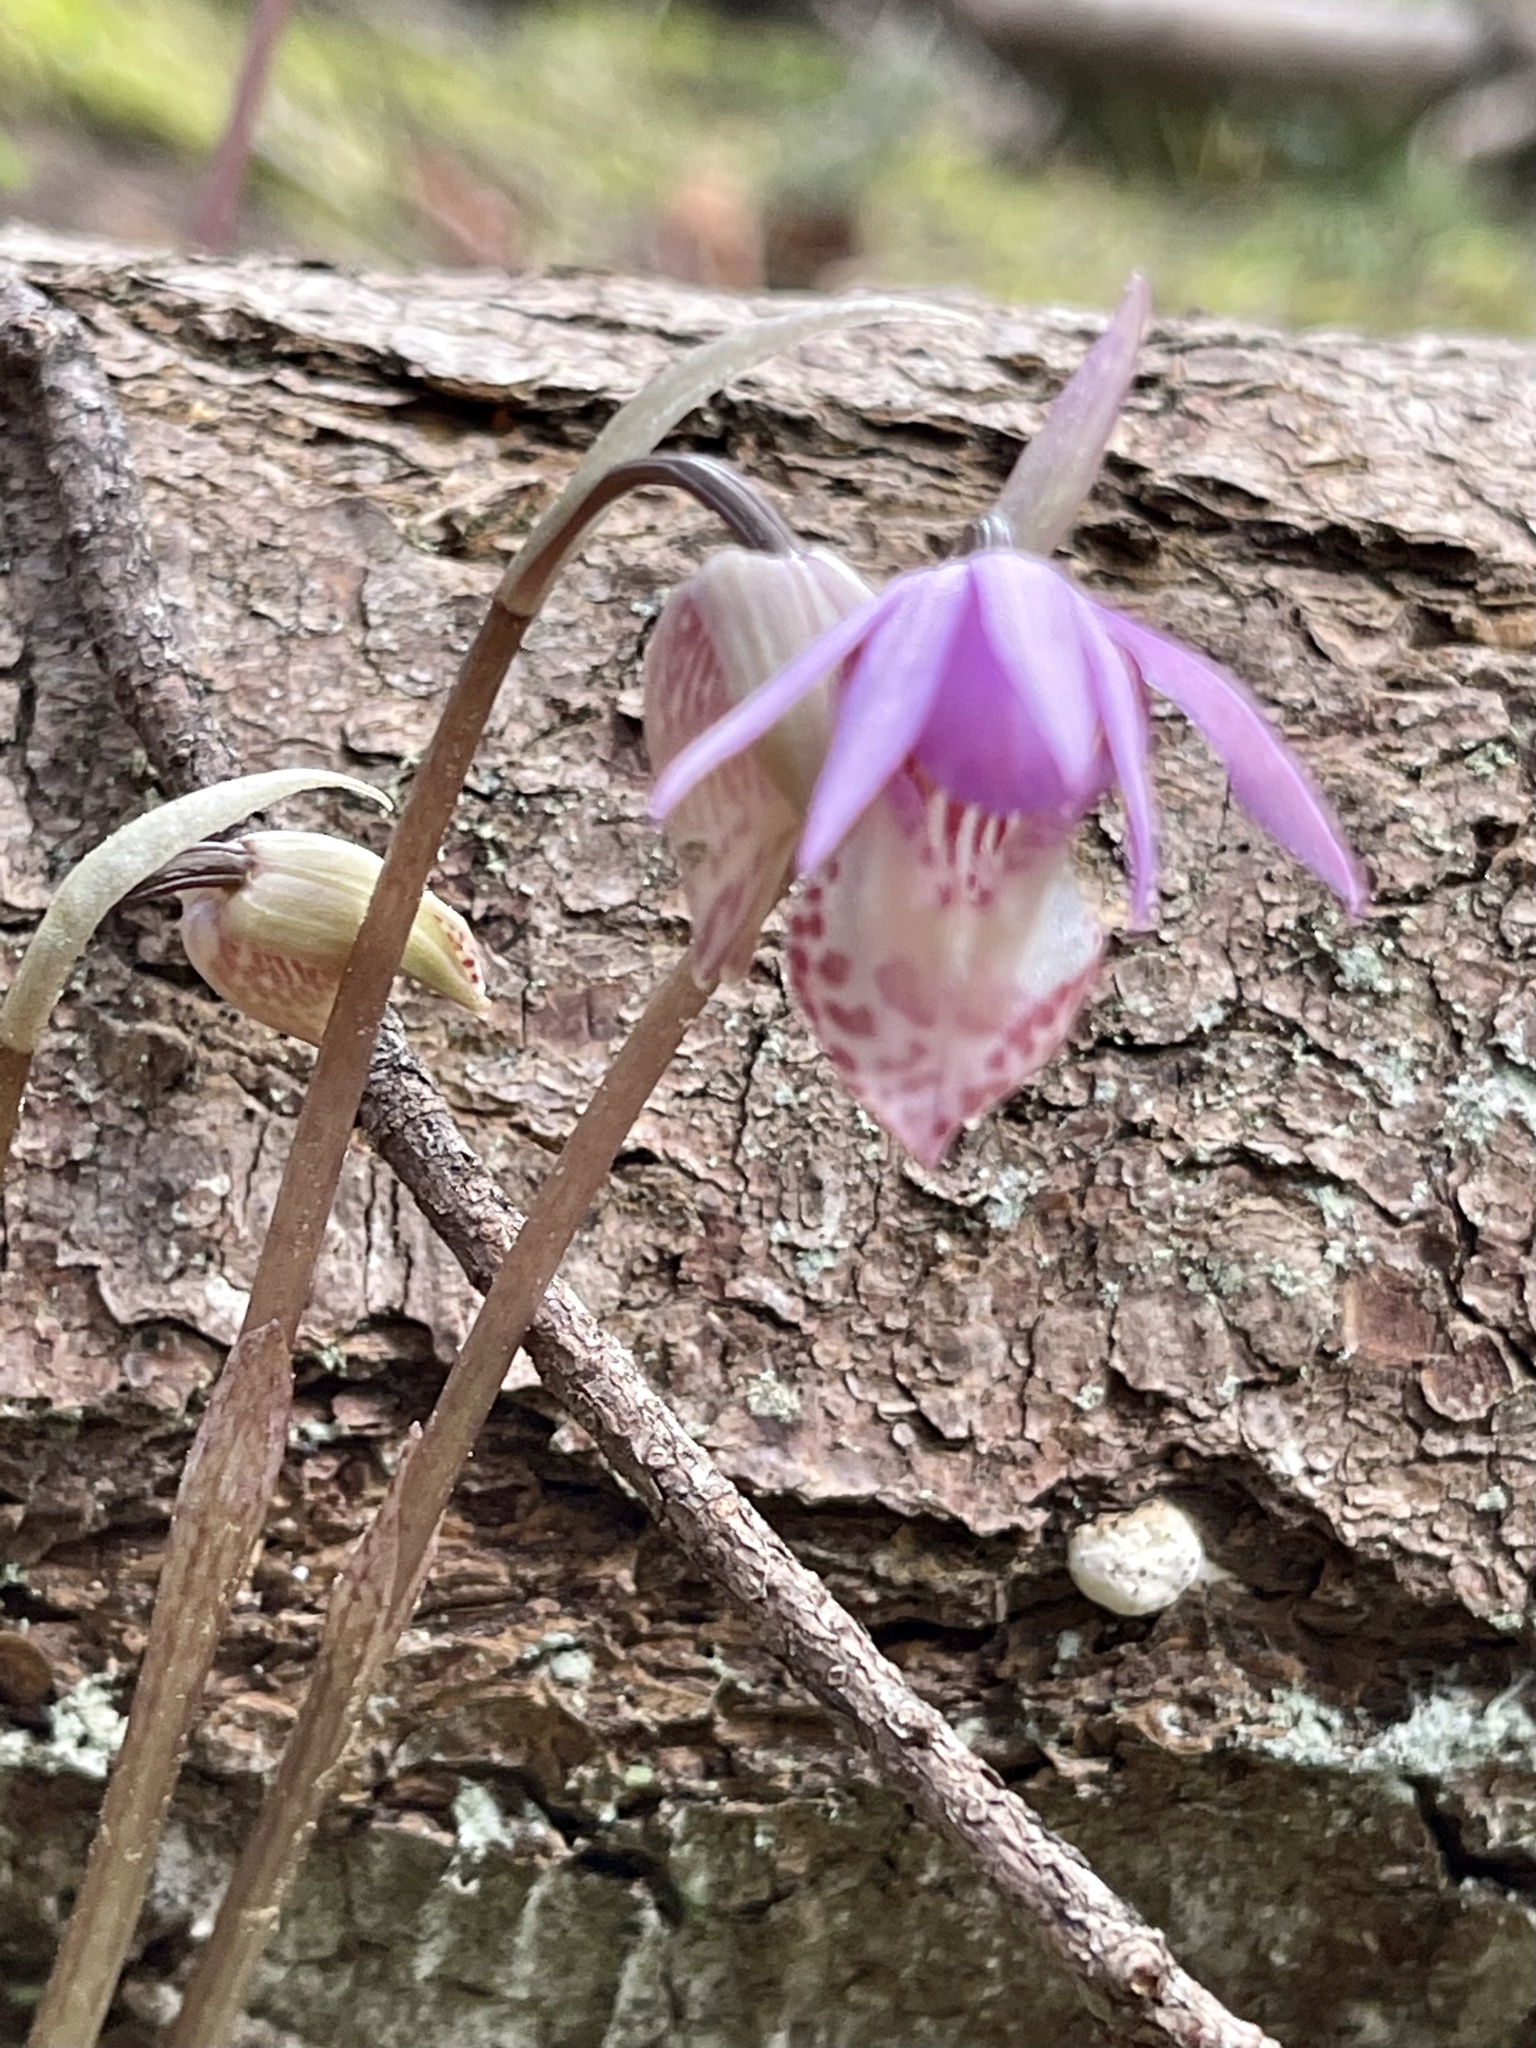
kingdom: Plantae
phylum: Tracheophyta
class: Liliopsida
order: Asparagales
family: Orchidaceae
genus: Calypso
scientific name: Calypso bulbosa
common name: Calypso
